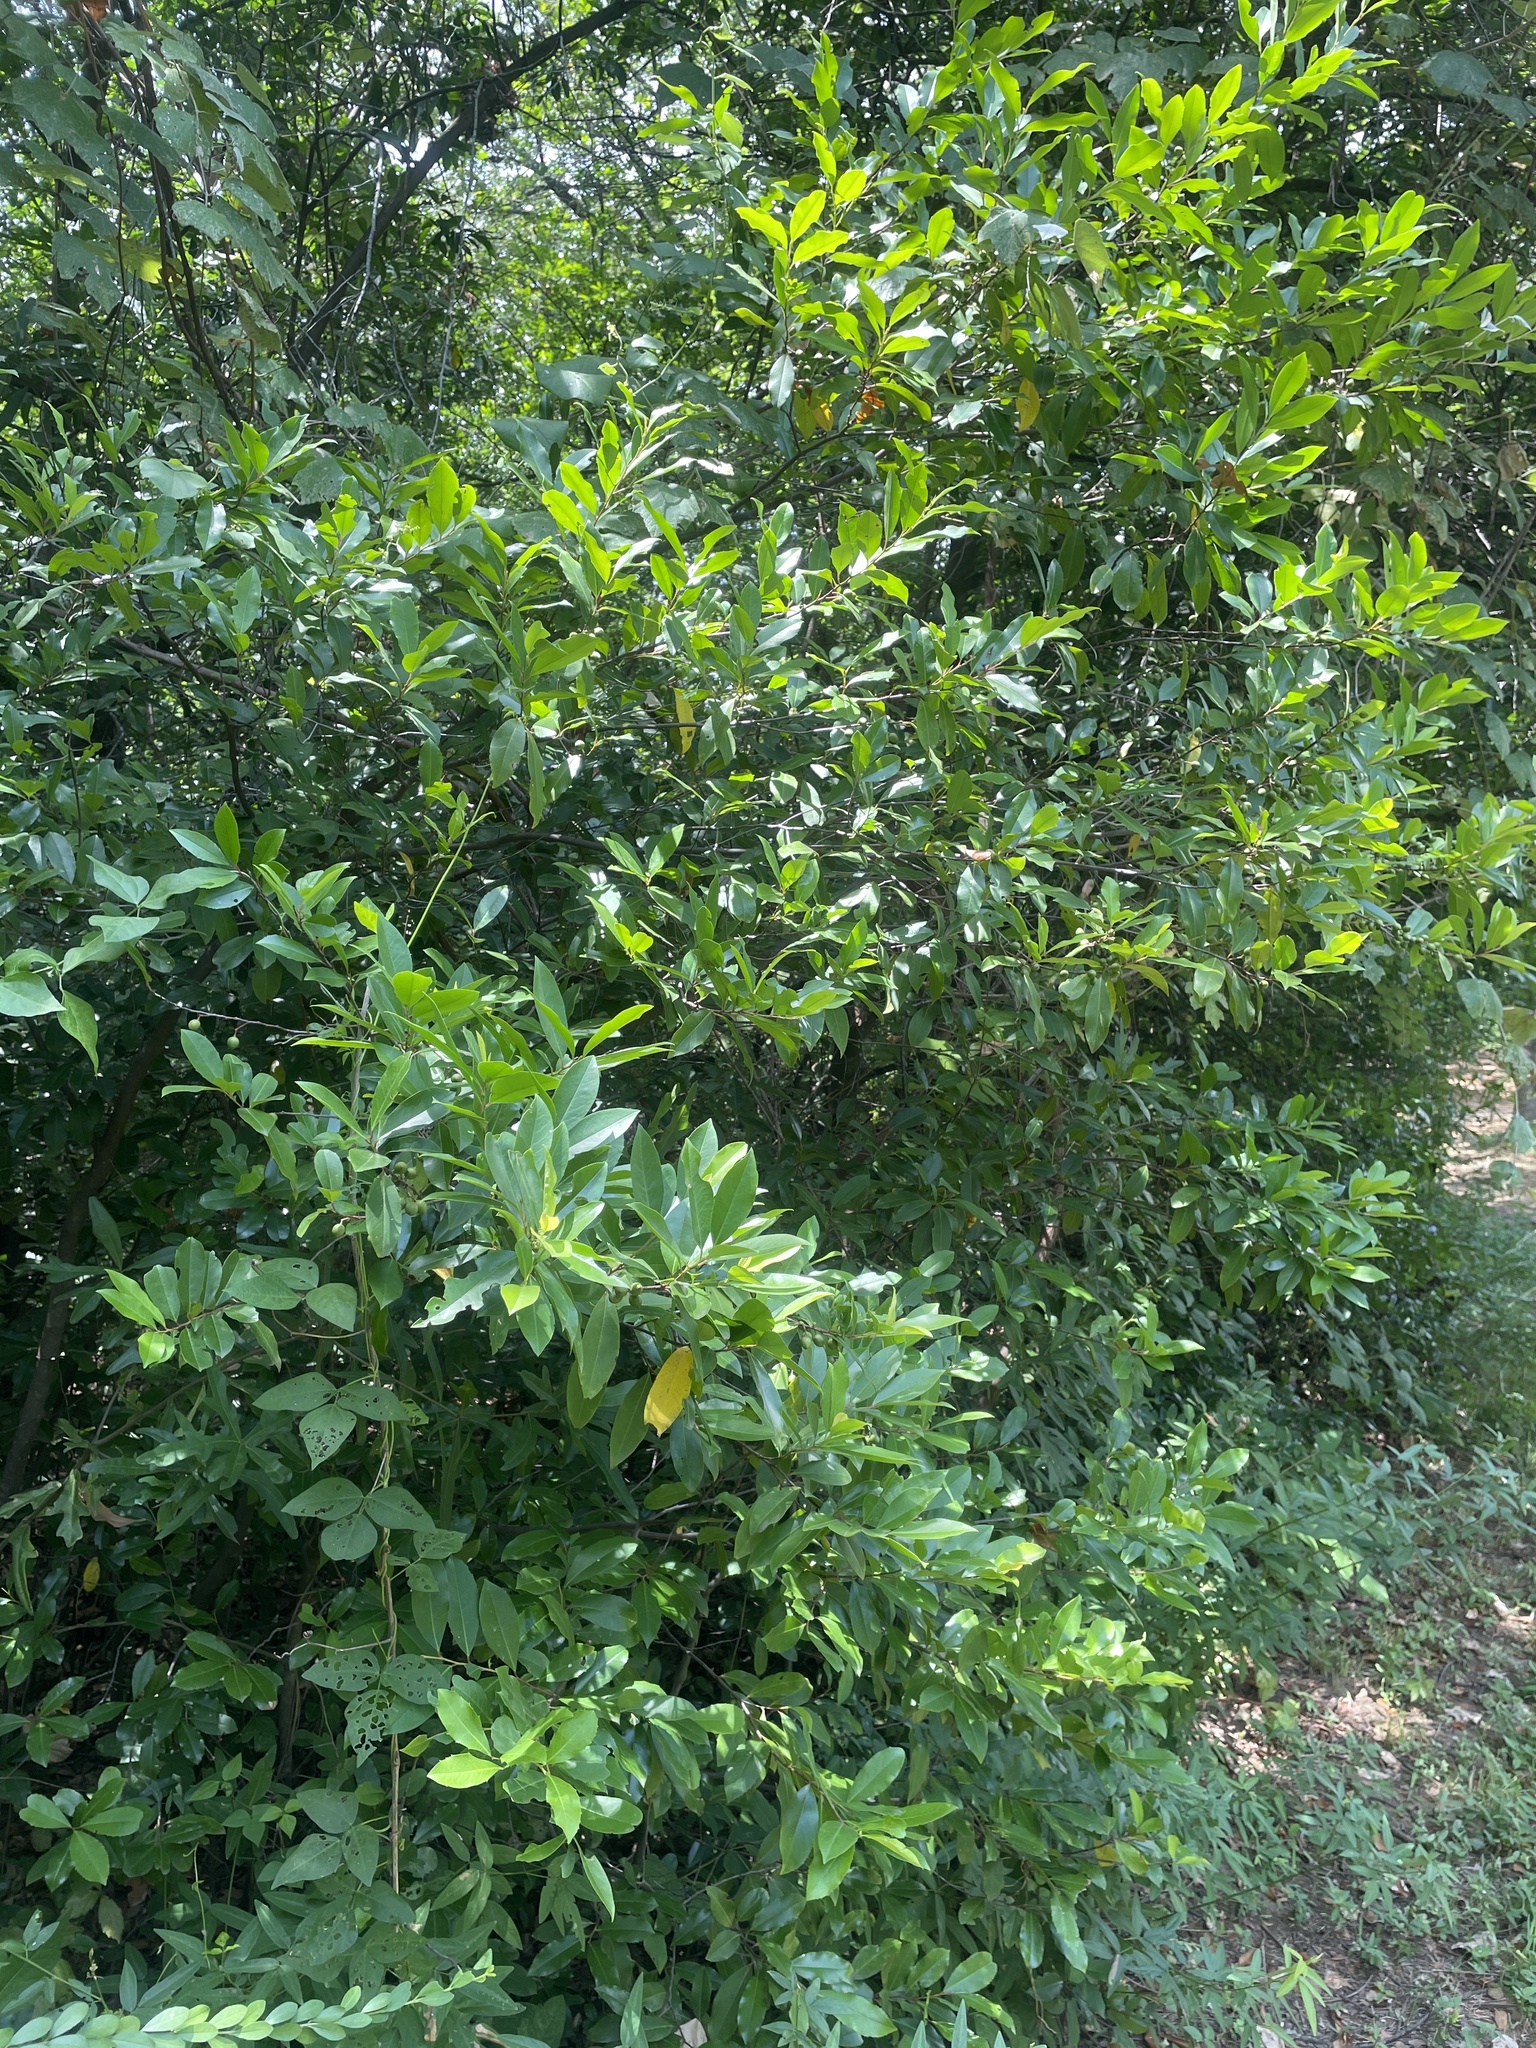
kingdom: Plantae
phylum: Tracheophyta
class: Magnoliopsida
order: Rosales
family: Rosaceae
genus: Prunus
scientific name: Prunus caroliniana
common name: Carolina laurel cherry
